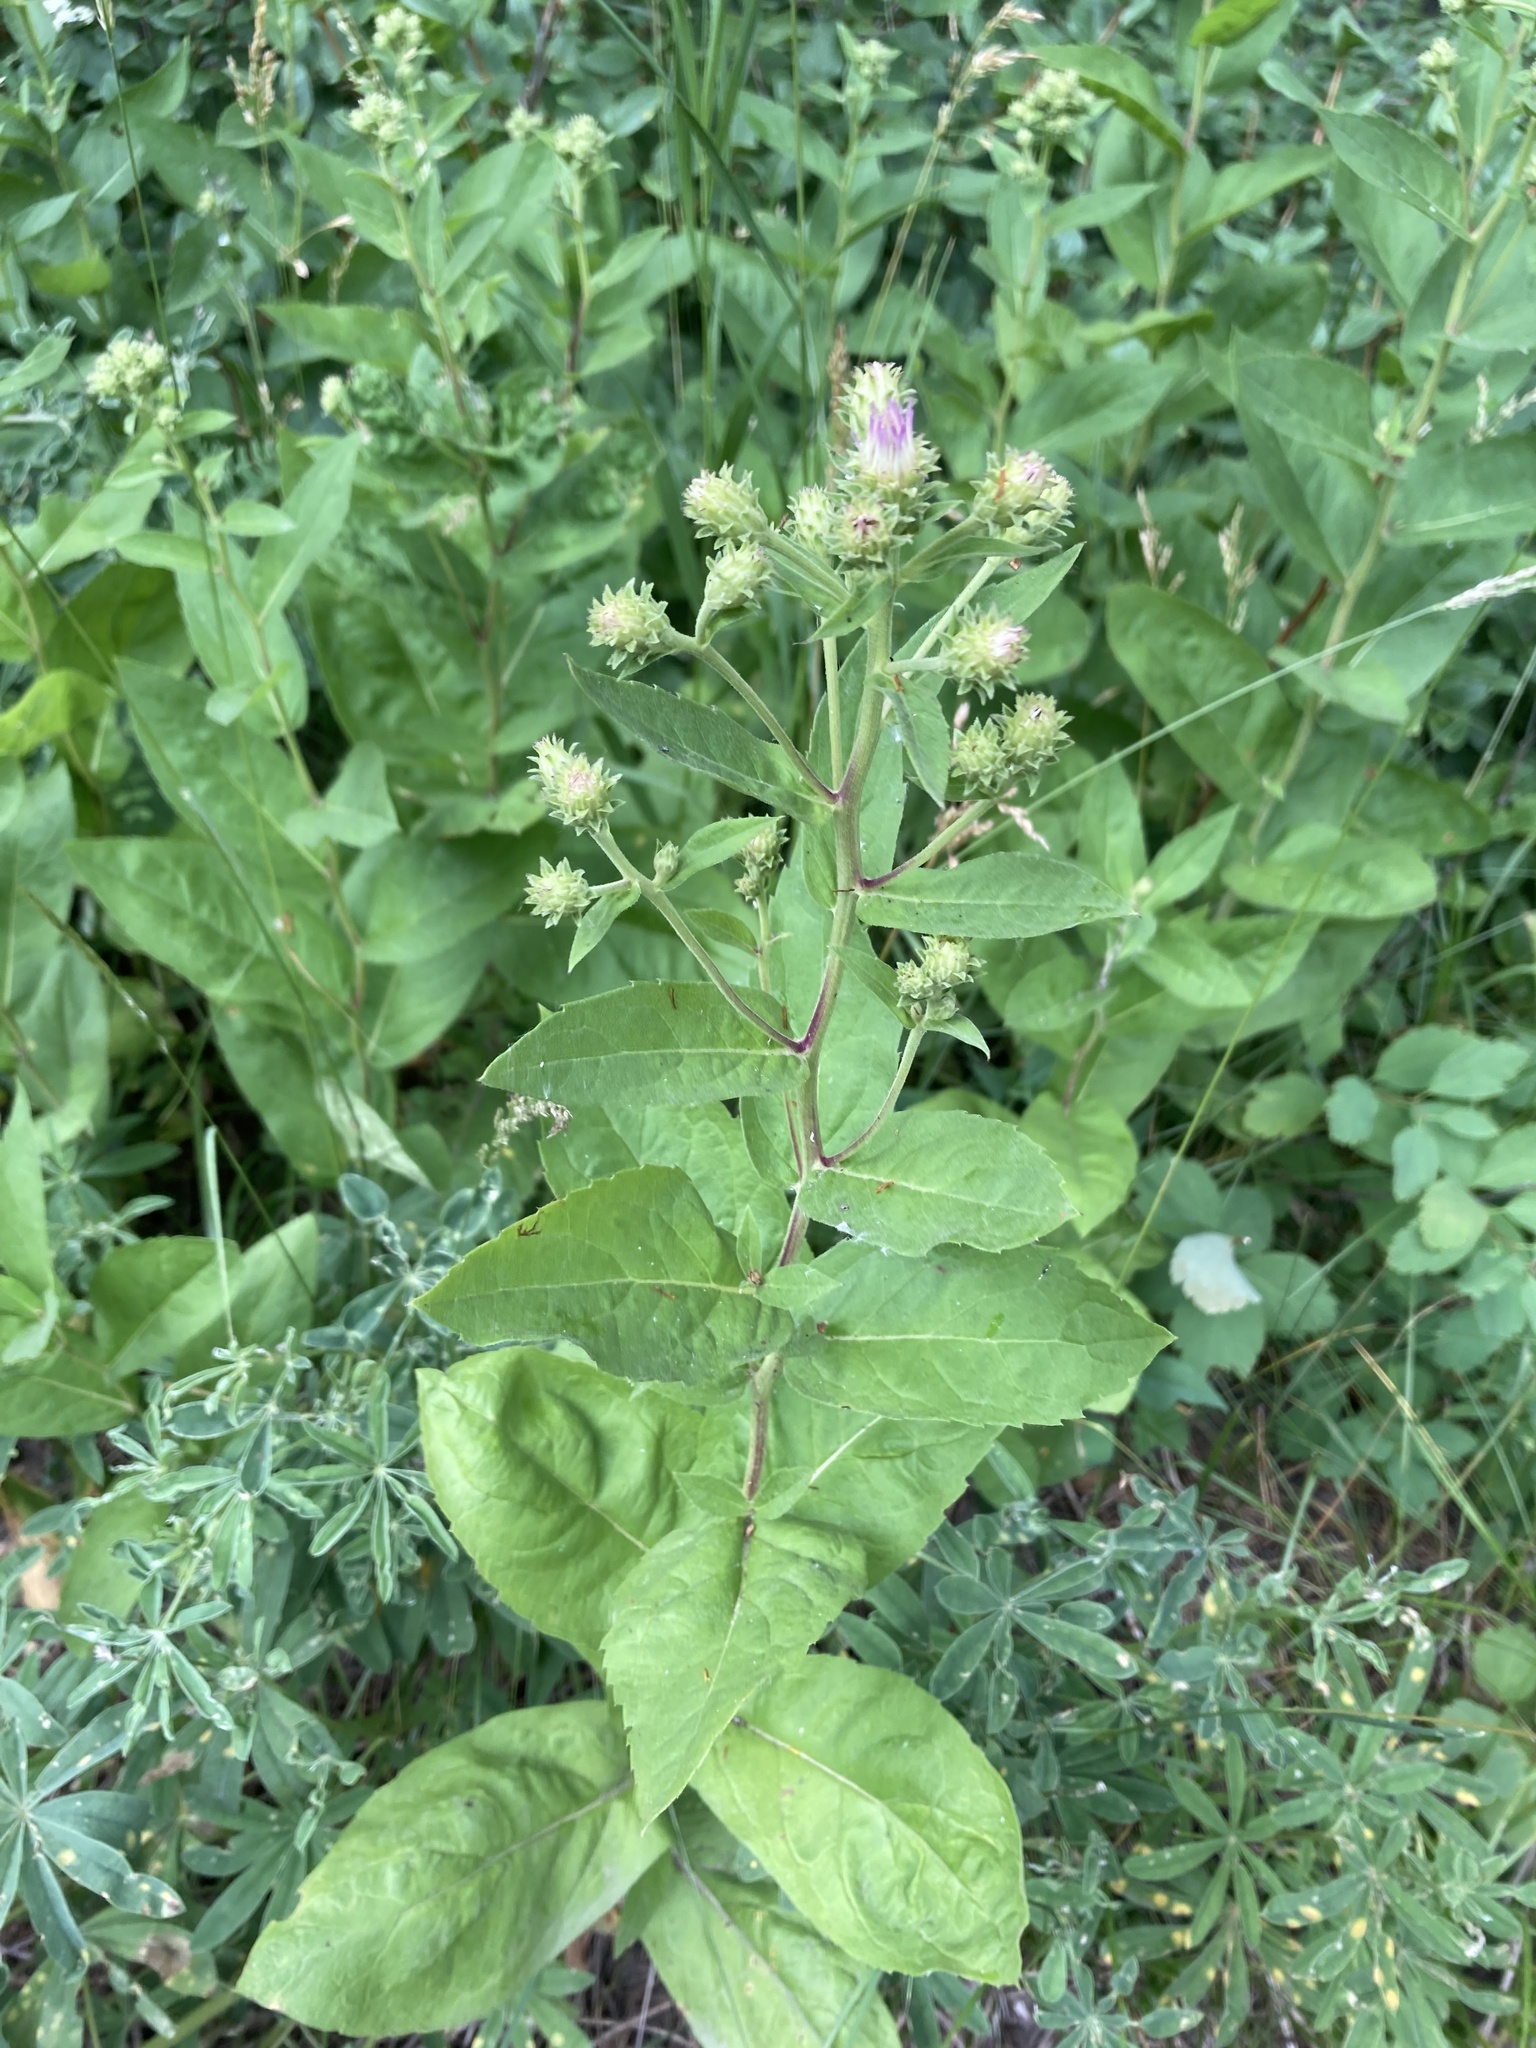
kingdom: Plantae
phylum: Tracheophyta
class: Magnoliopsida
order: Asterales
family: Asteraceae
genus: Eurybia
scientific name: Eurybia conspicua
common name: Showy aster
